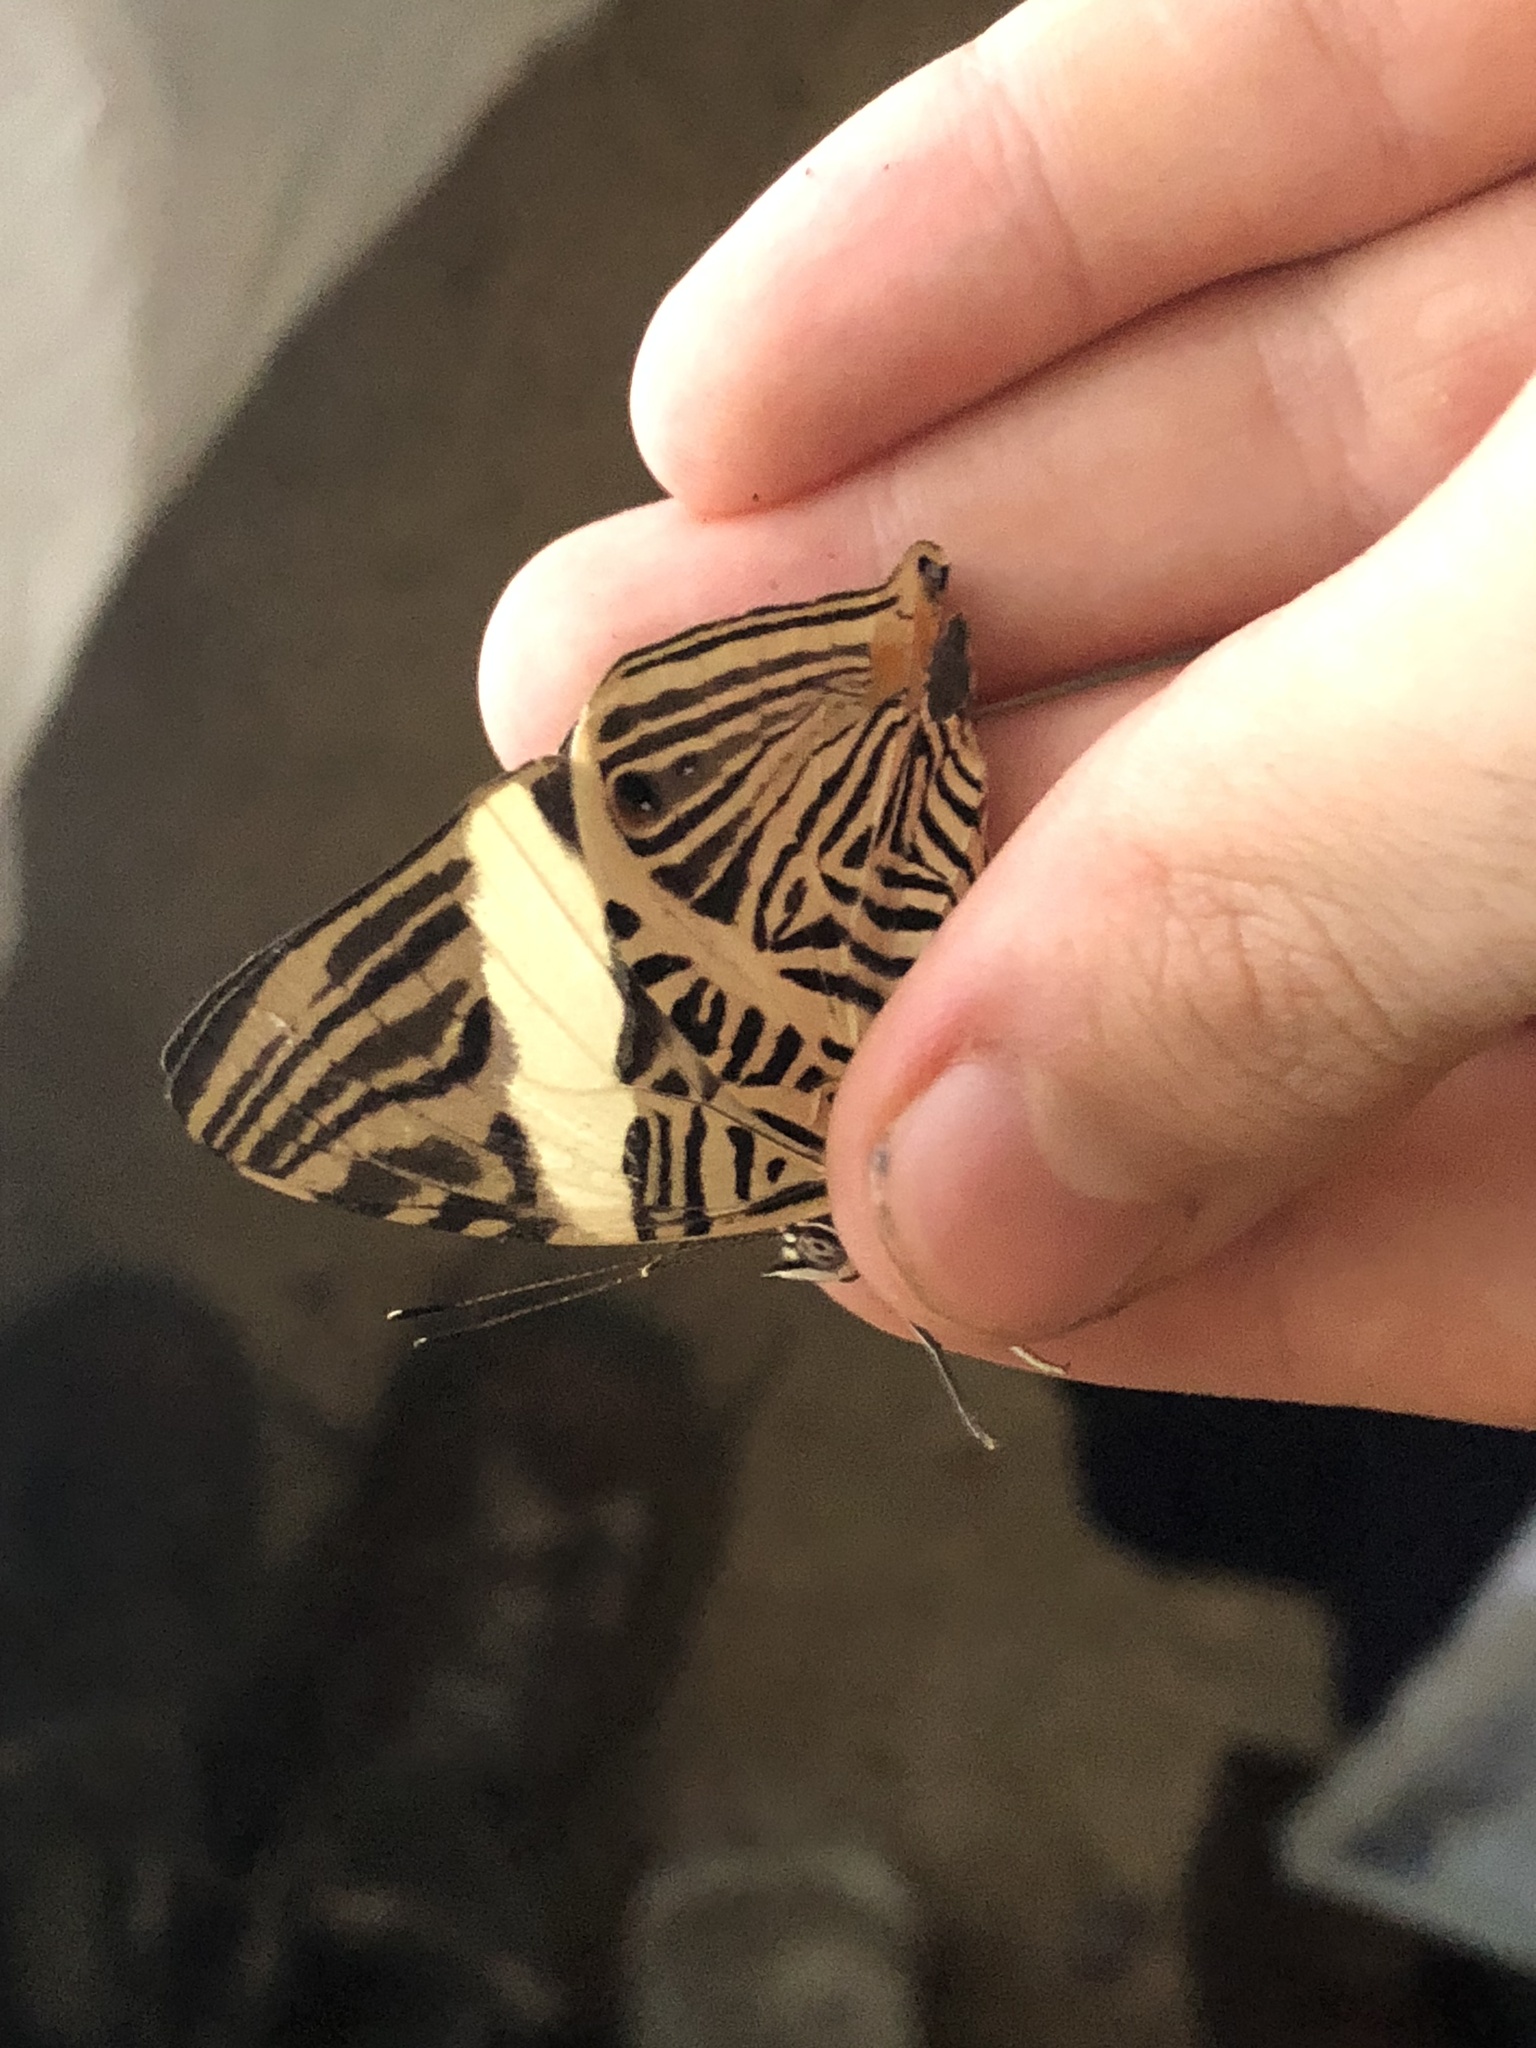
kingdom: Animalia
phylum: Arthropoda
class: Insecta
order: Lepidoptera
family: Nymphalidae
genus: Colobura
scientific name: Colobura dirce
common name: Dirce beauty
